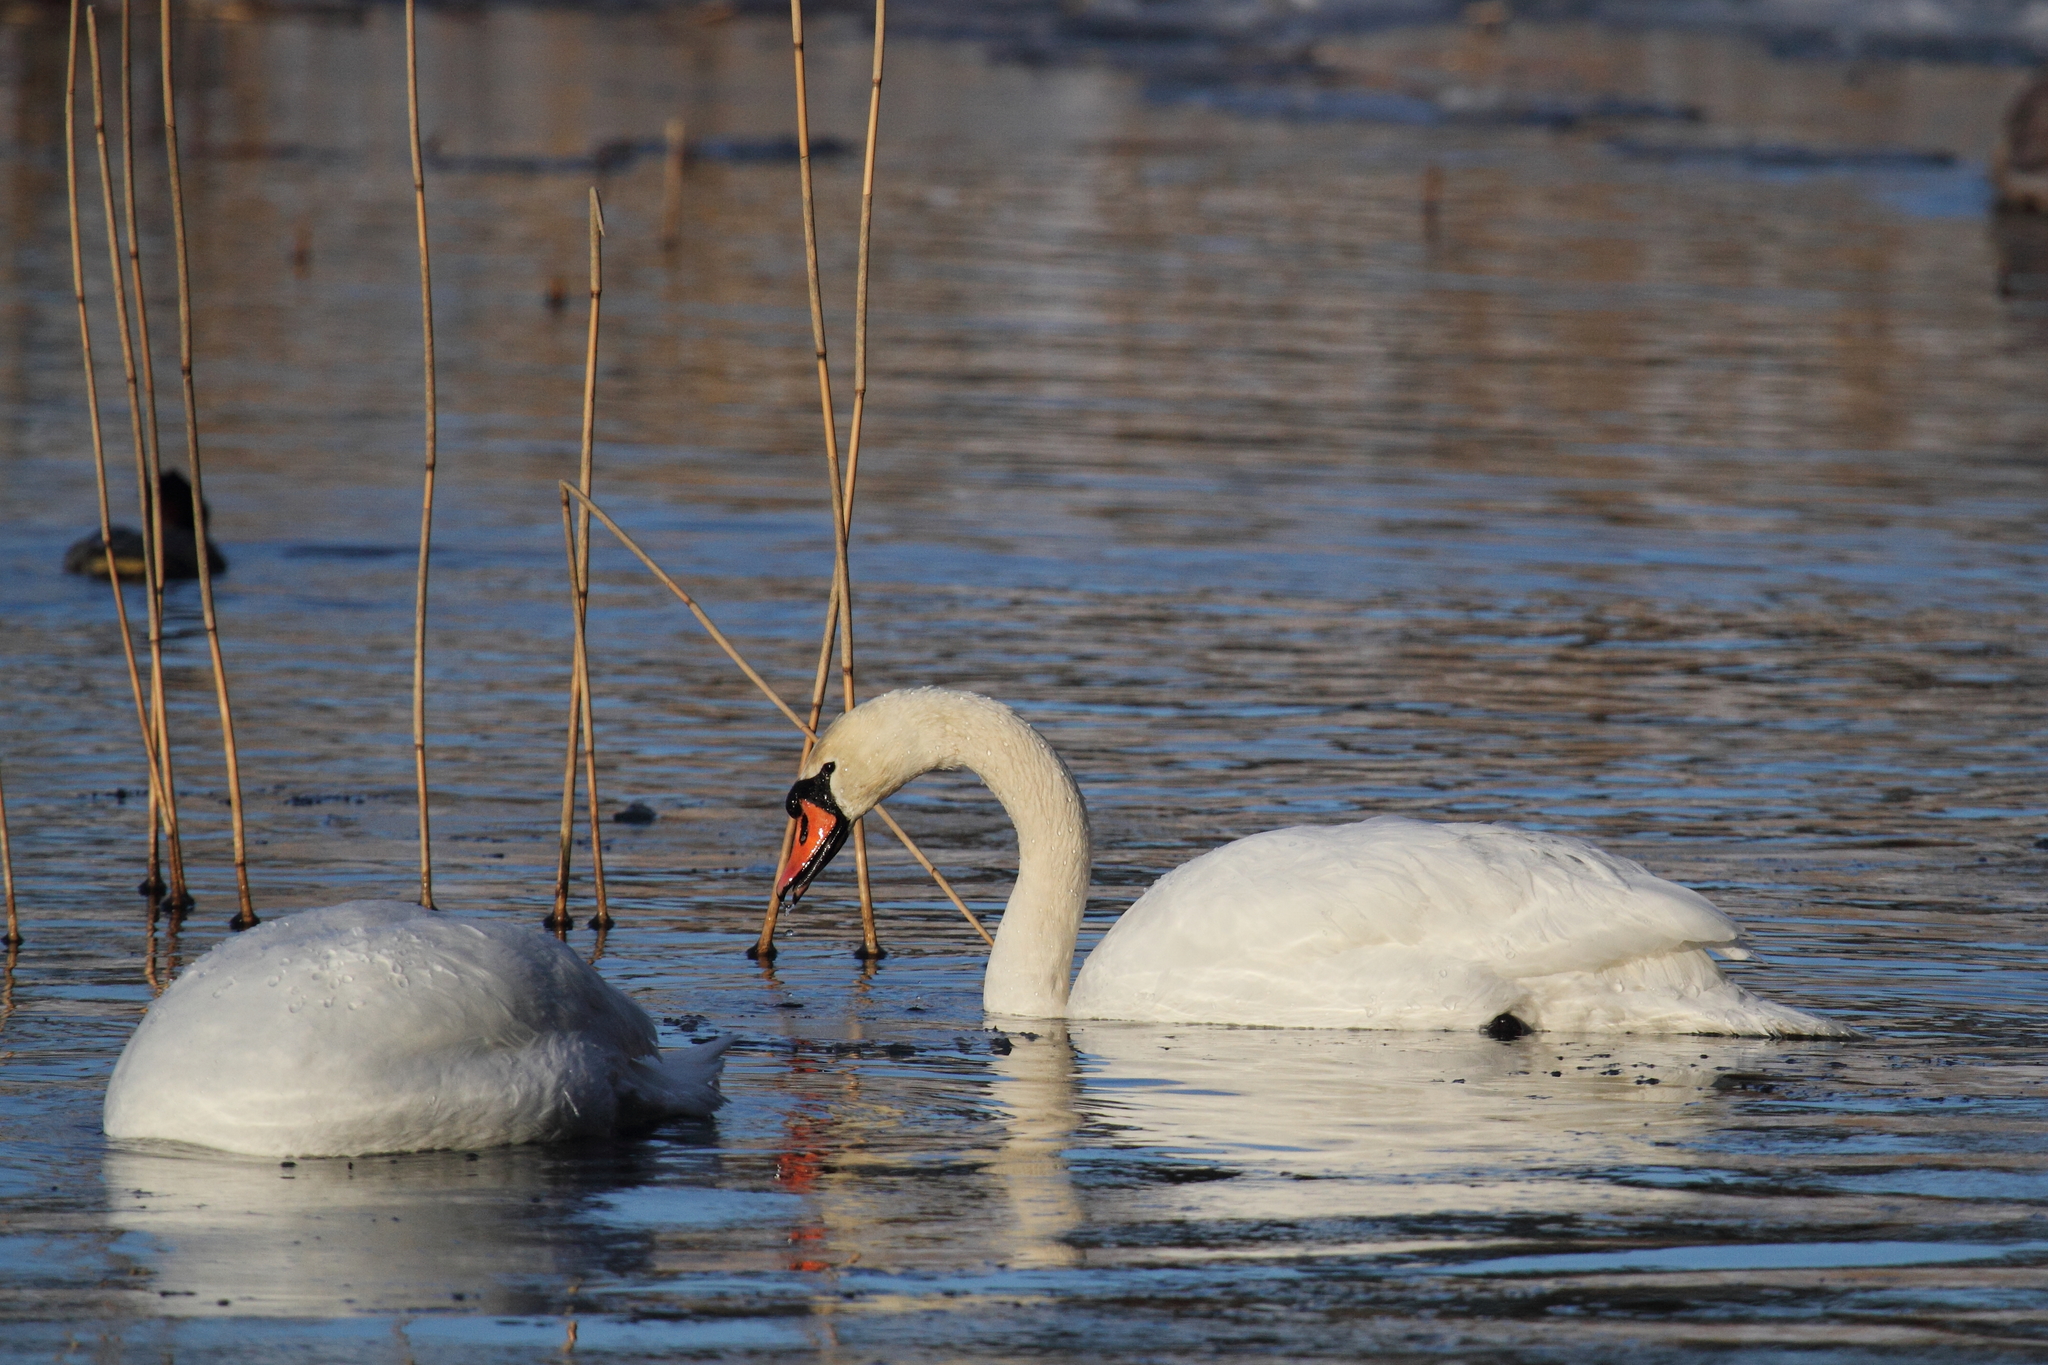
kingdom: Animalia
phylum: Chordata
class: Aves
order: Anseriformes
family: Anatidae
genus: Cygnus
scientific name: Cygnus olor
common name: Mute swan
